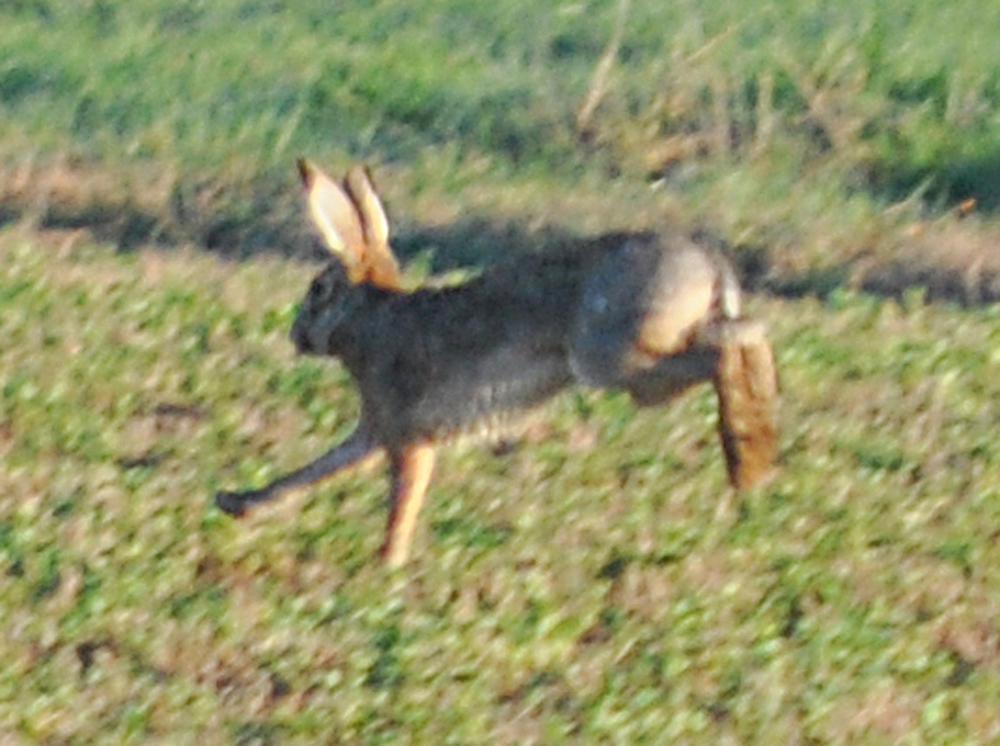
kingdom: Animalia
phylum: Chordata
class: Mammalia
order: Lagomorpha
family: Leporidae
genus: Lepus
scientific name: Lepus europaeus
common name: European hare
